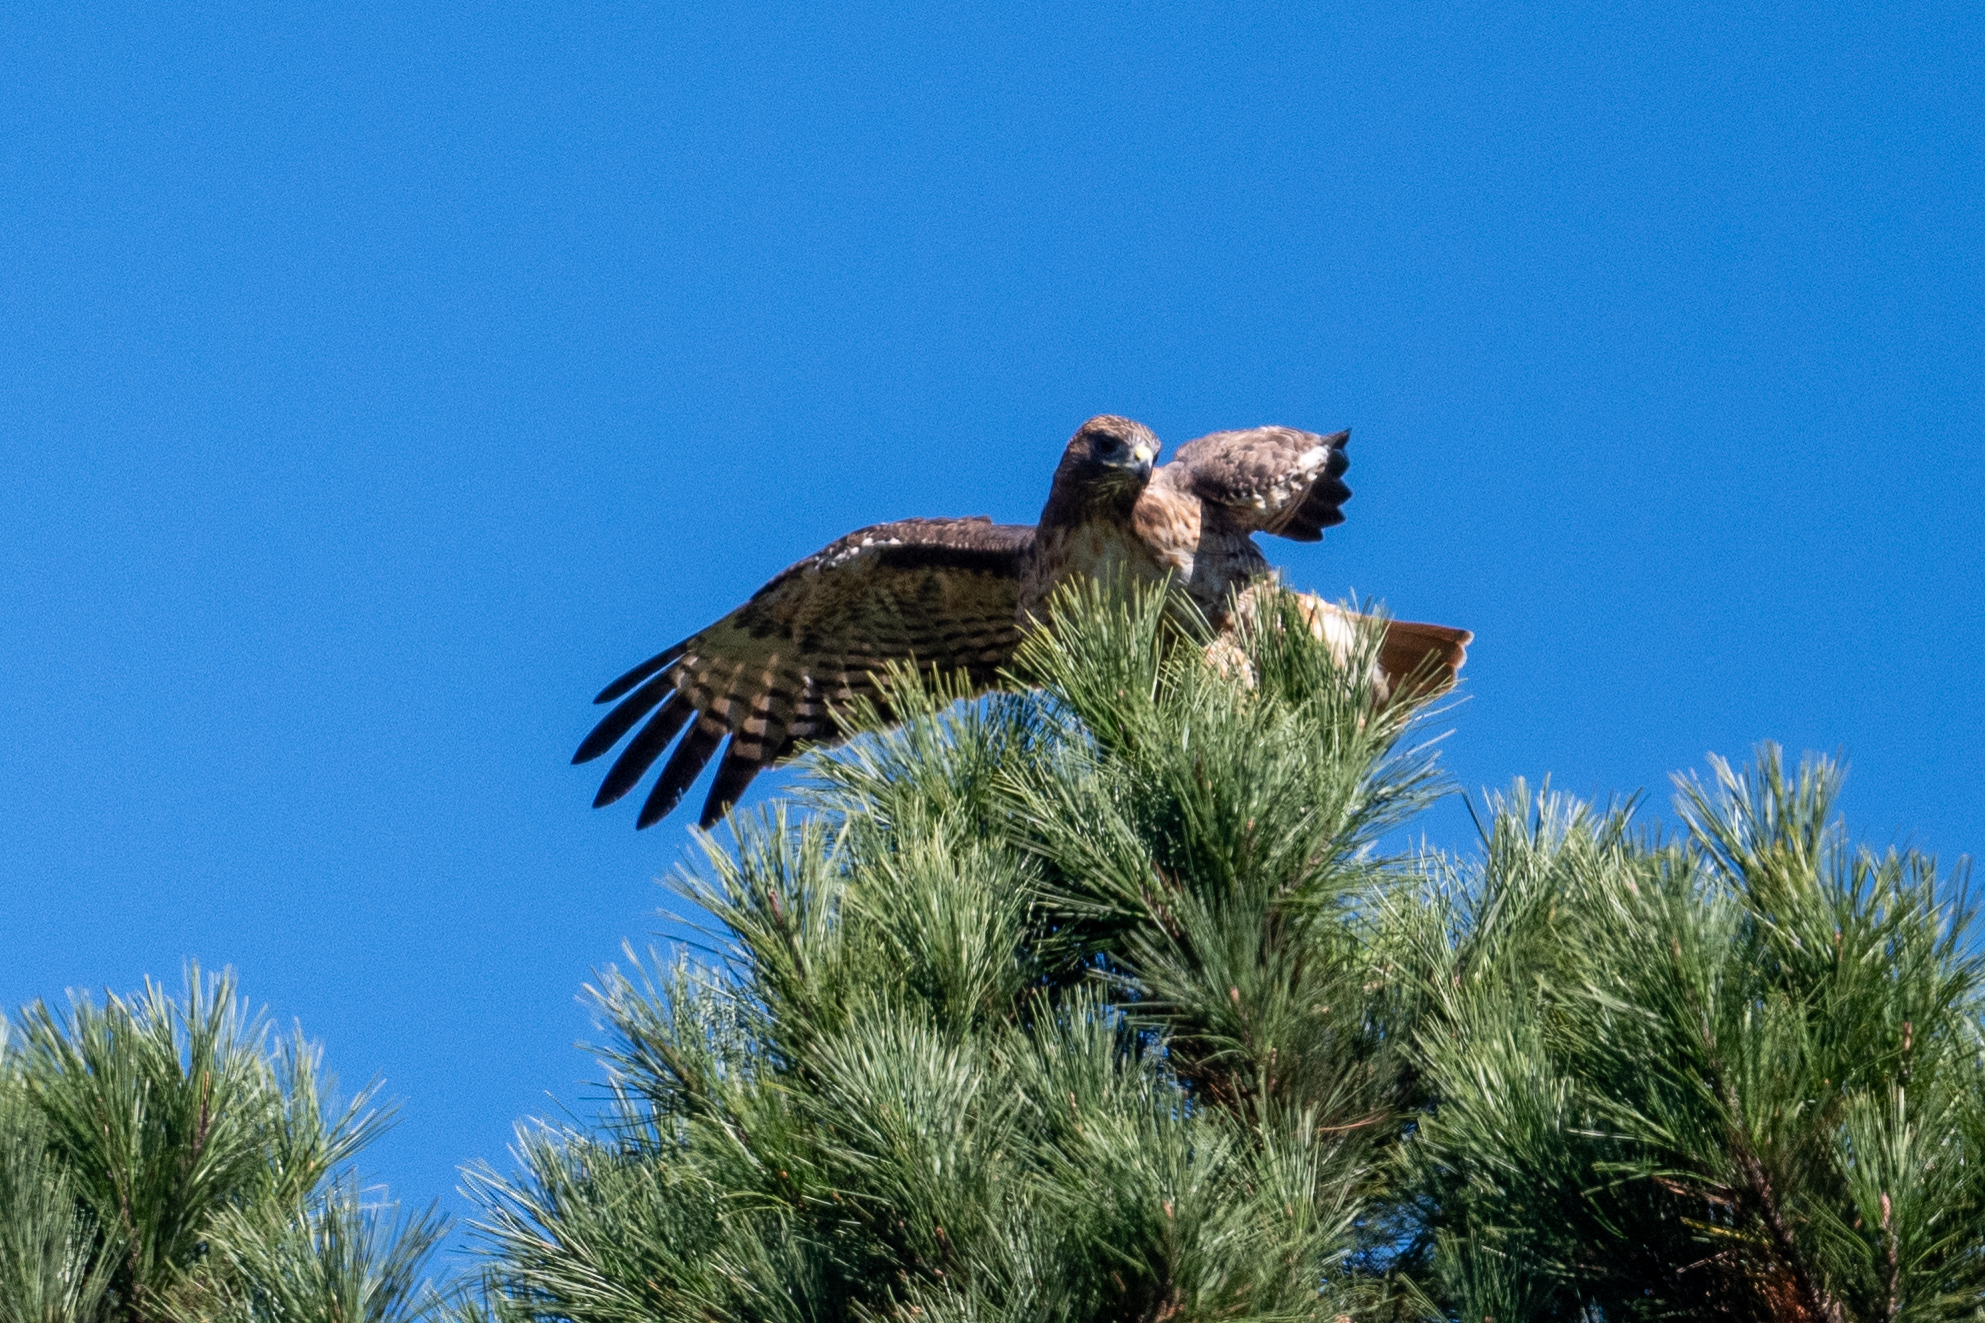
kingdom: Animalia
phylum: Chordata
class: Aves
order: Accipitriformes
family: Accipitridae
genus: Buteo
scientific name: Buteo jamaicensis
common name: Red-tailed hawk
